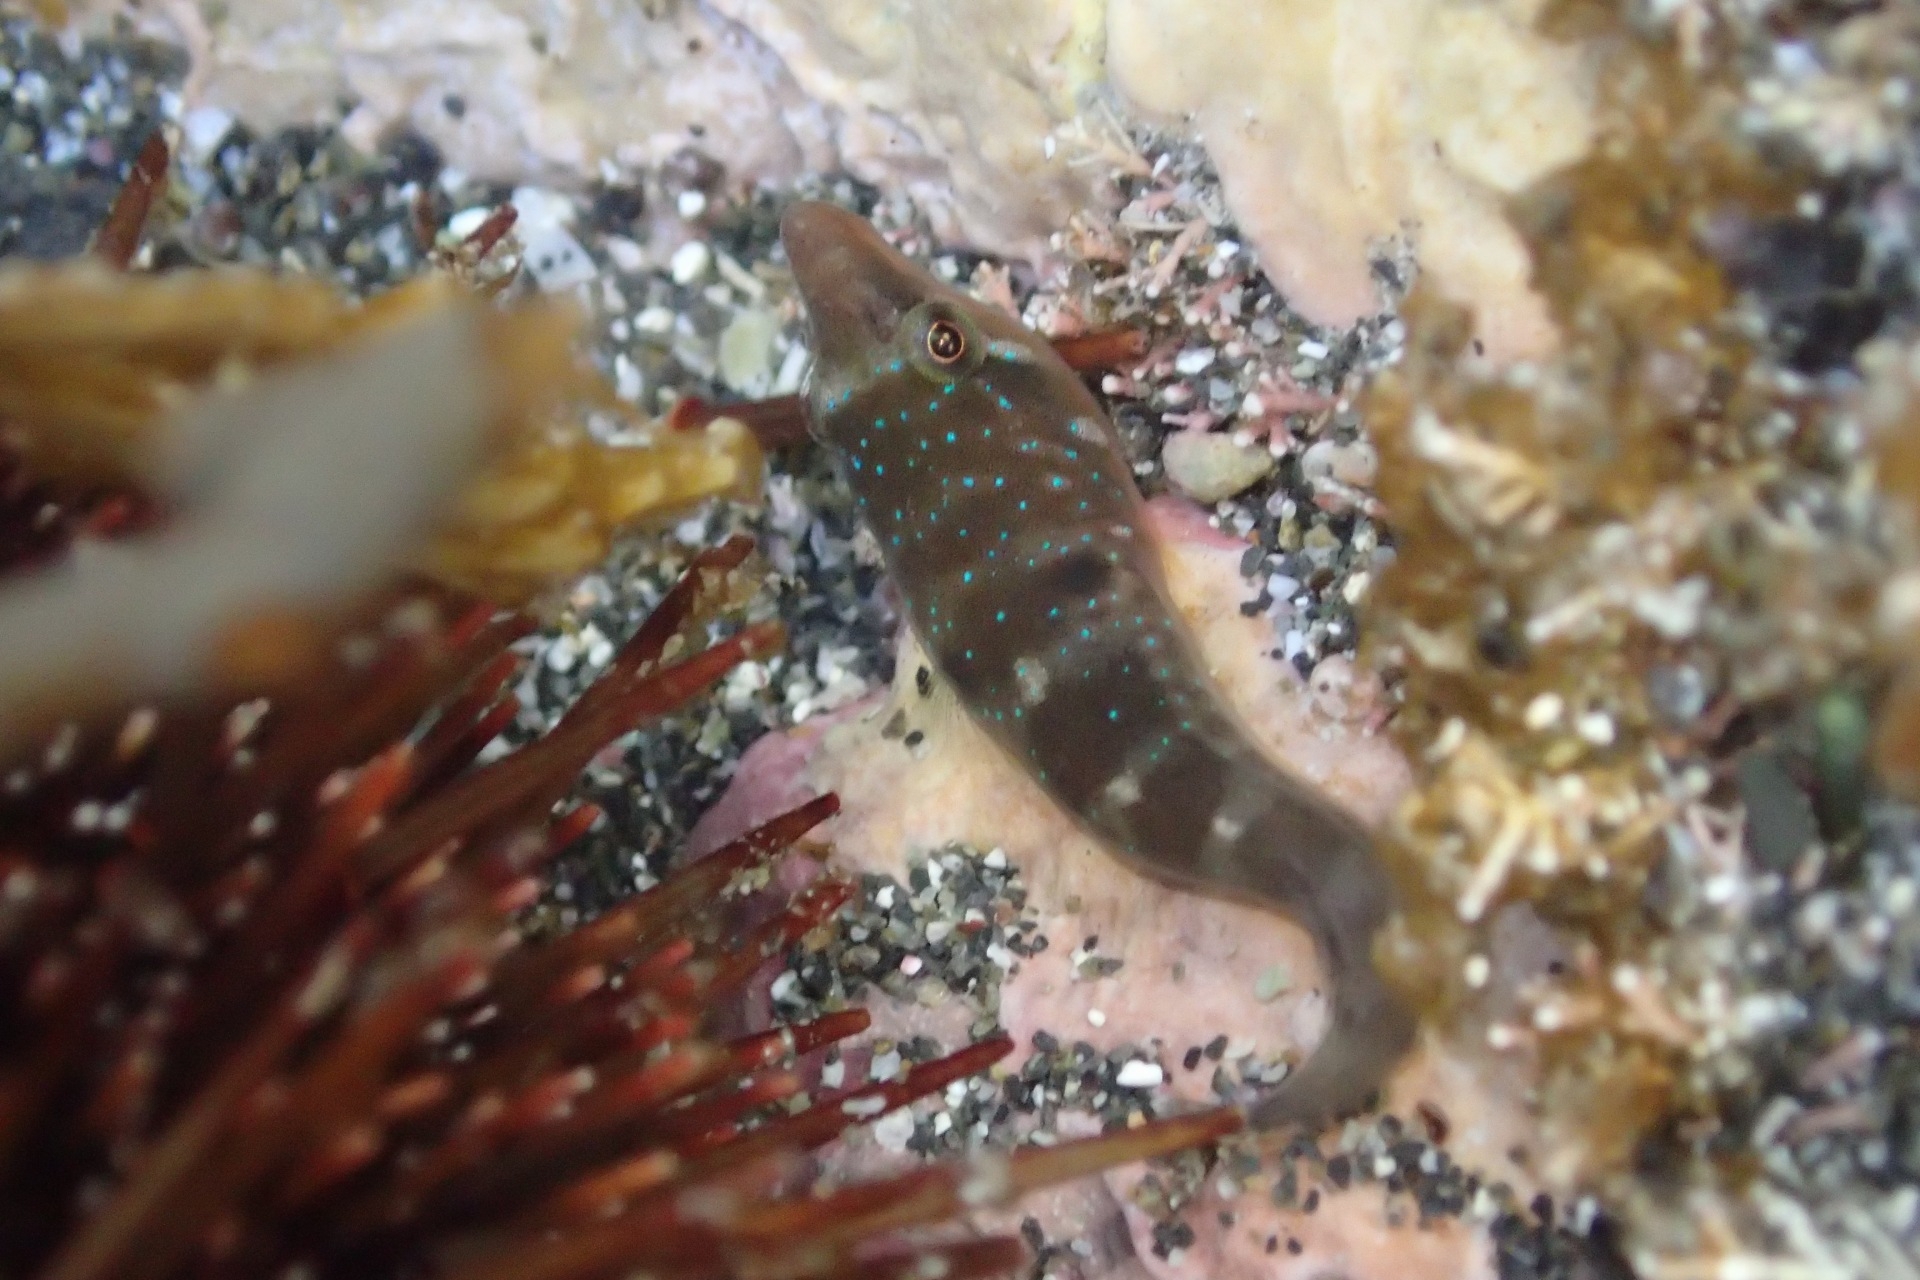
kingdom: Animalia
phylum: Chordata
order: Gobiesociformes
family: Gobiesocidae
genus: Dellichthys
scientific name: Dellichthys morelandi
